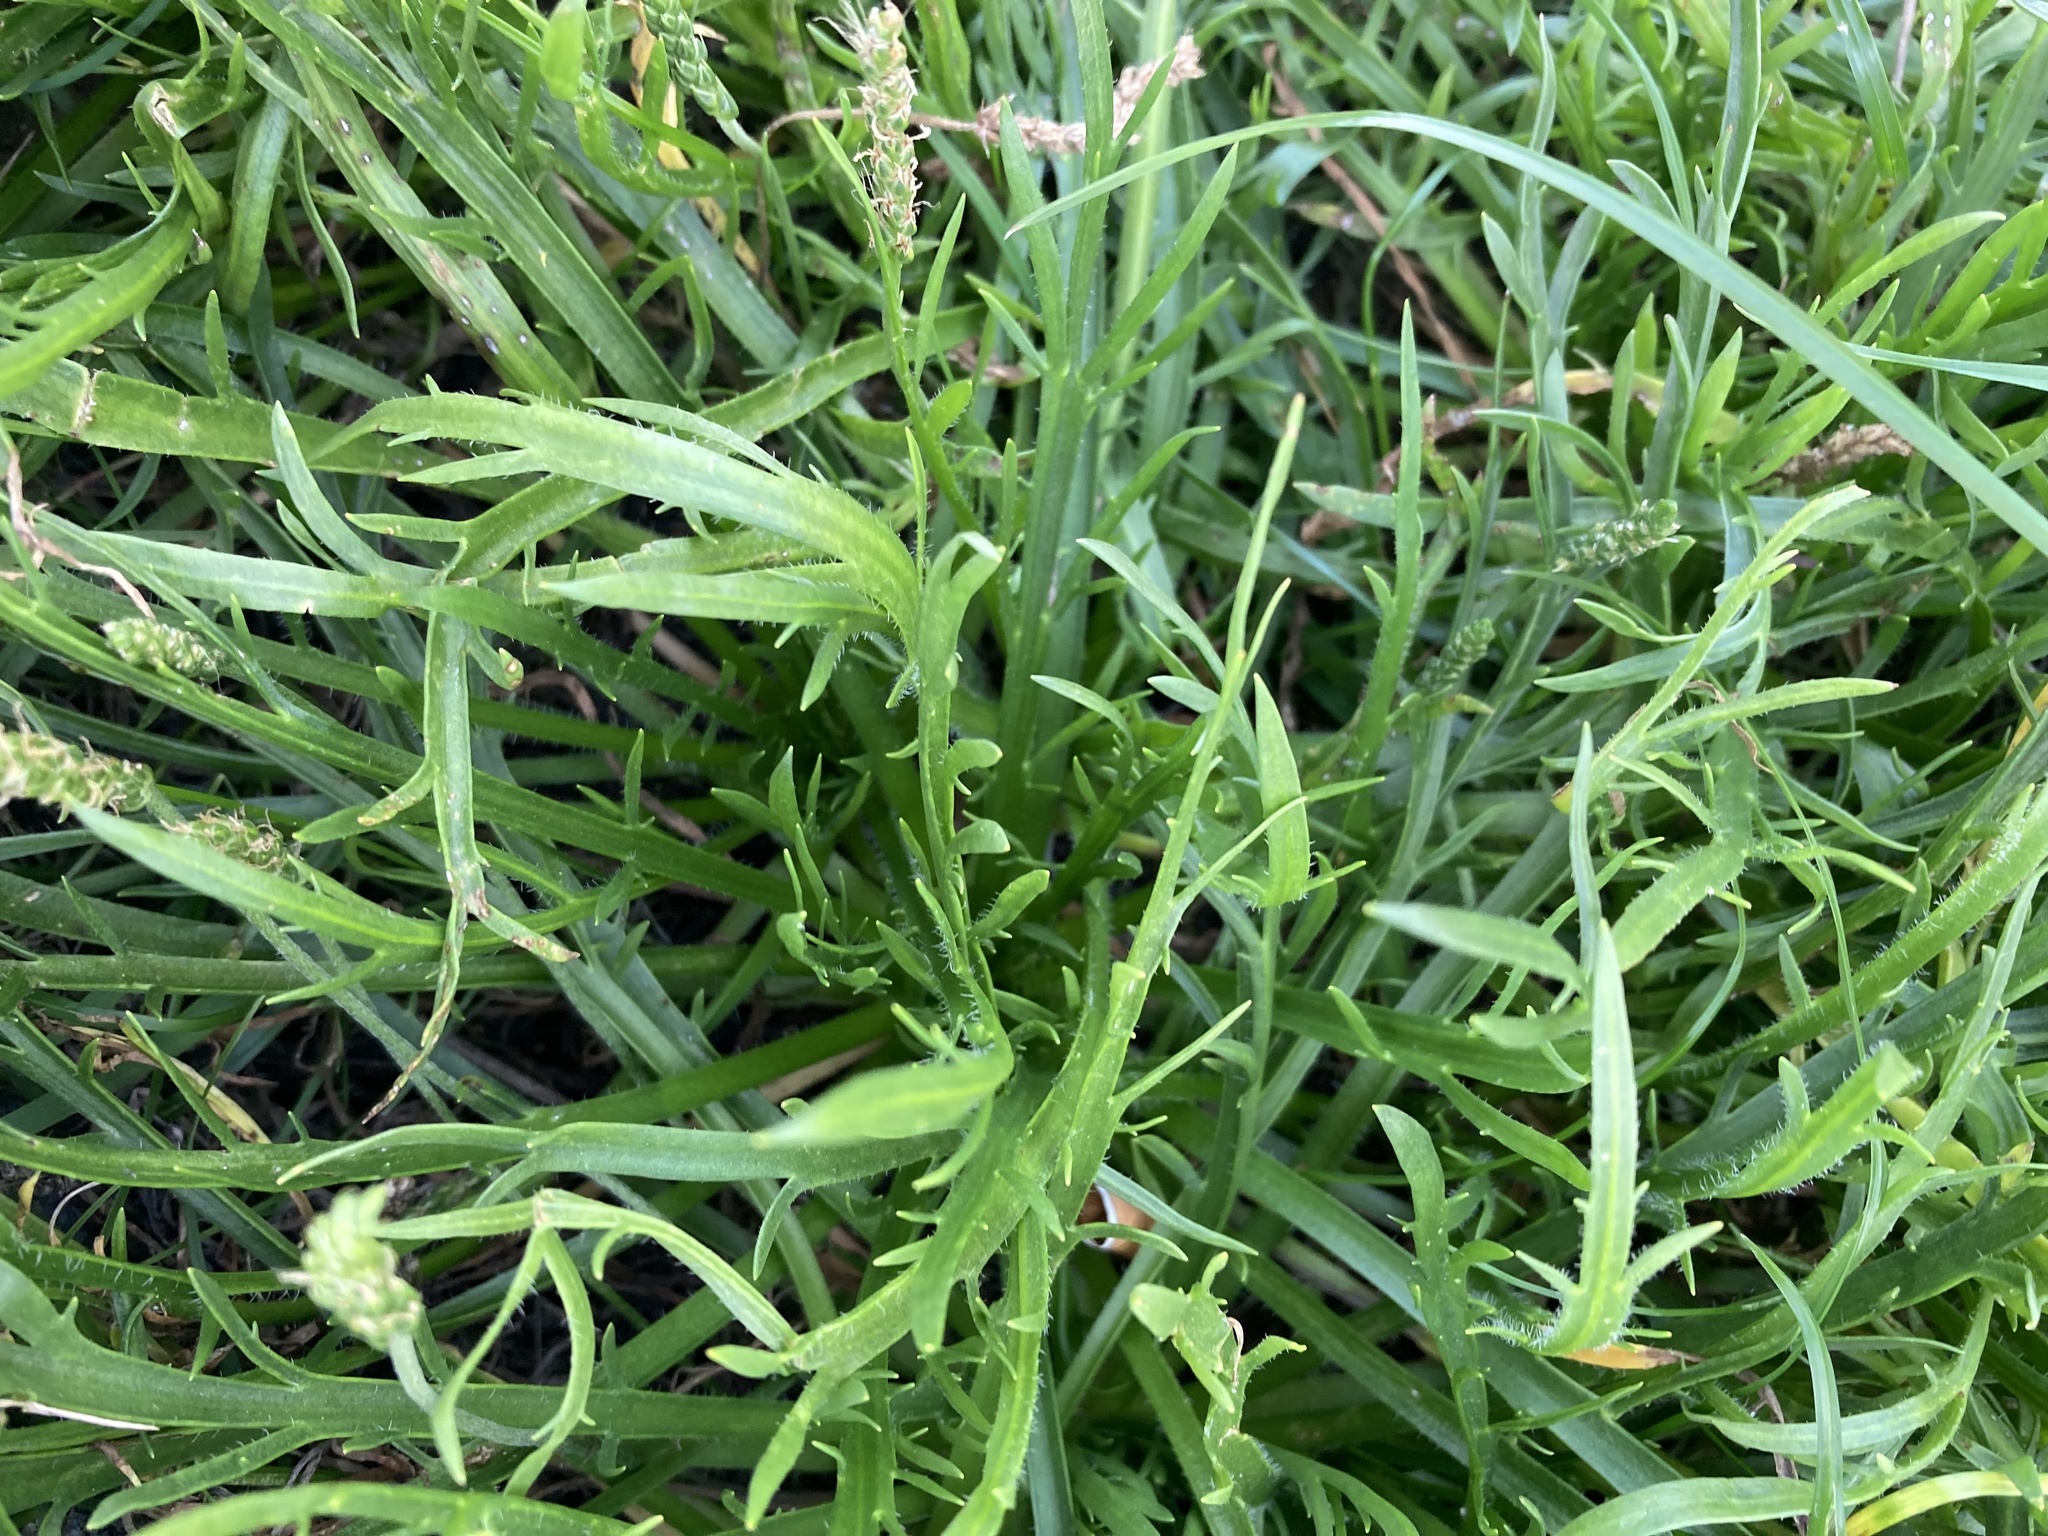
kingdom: Plantae
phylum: Tracheophyta
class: Magnoliopsida
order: Lamiales
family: Plantaginaceae
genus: Plantago
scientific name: Plantago coronopus
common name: Buck's-horn plantain
